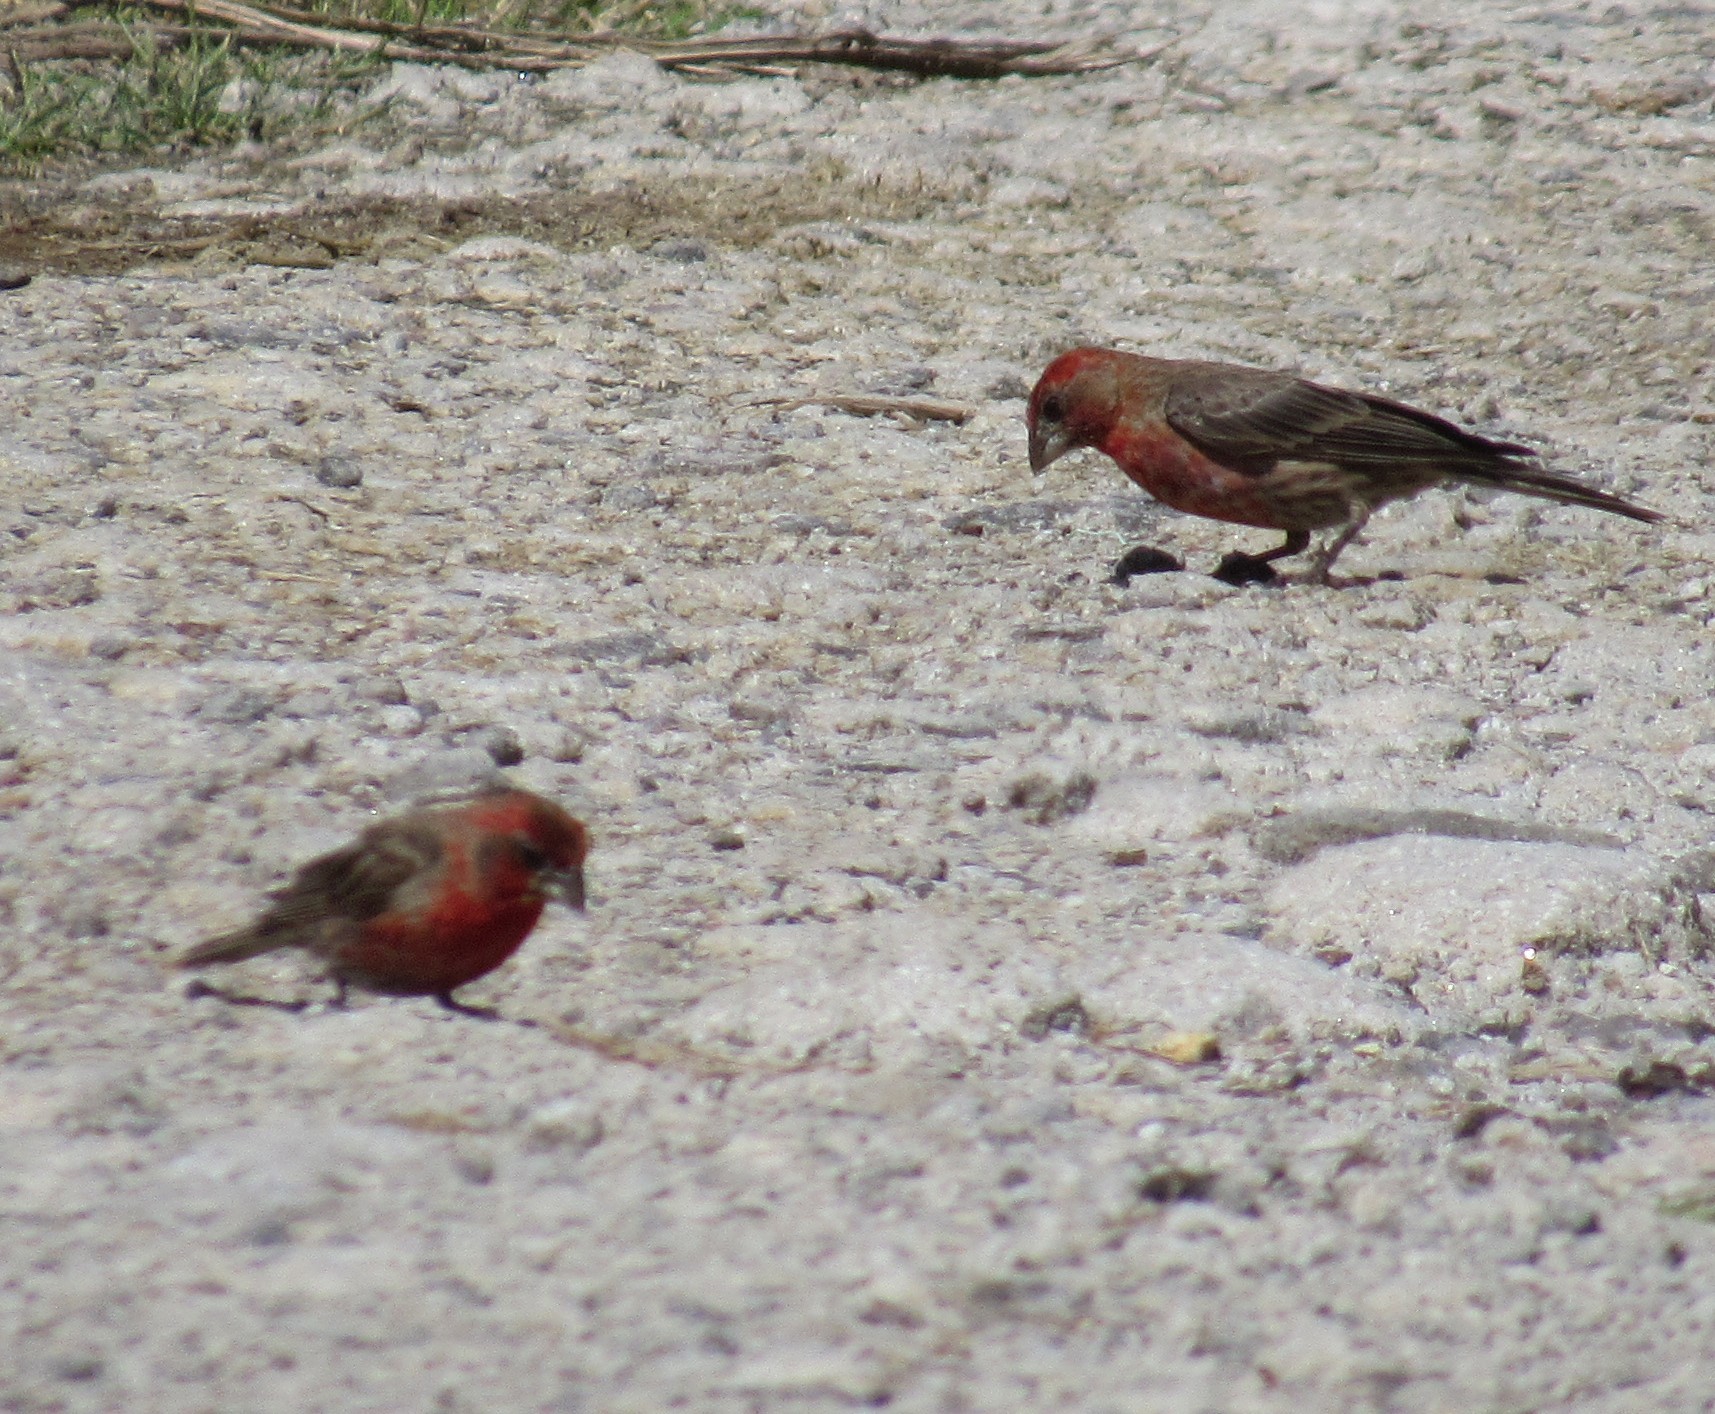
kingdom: Animalia
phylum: Chordata
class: Aves
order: Passeriformes
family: Fringillidae
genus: Haemorhous
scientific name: Haemorhous mexicanus
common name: House finch
